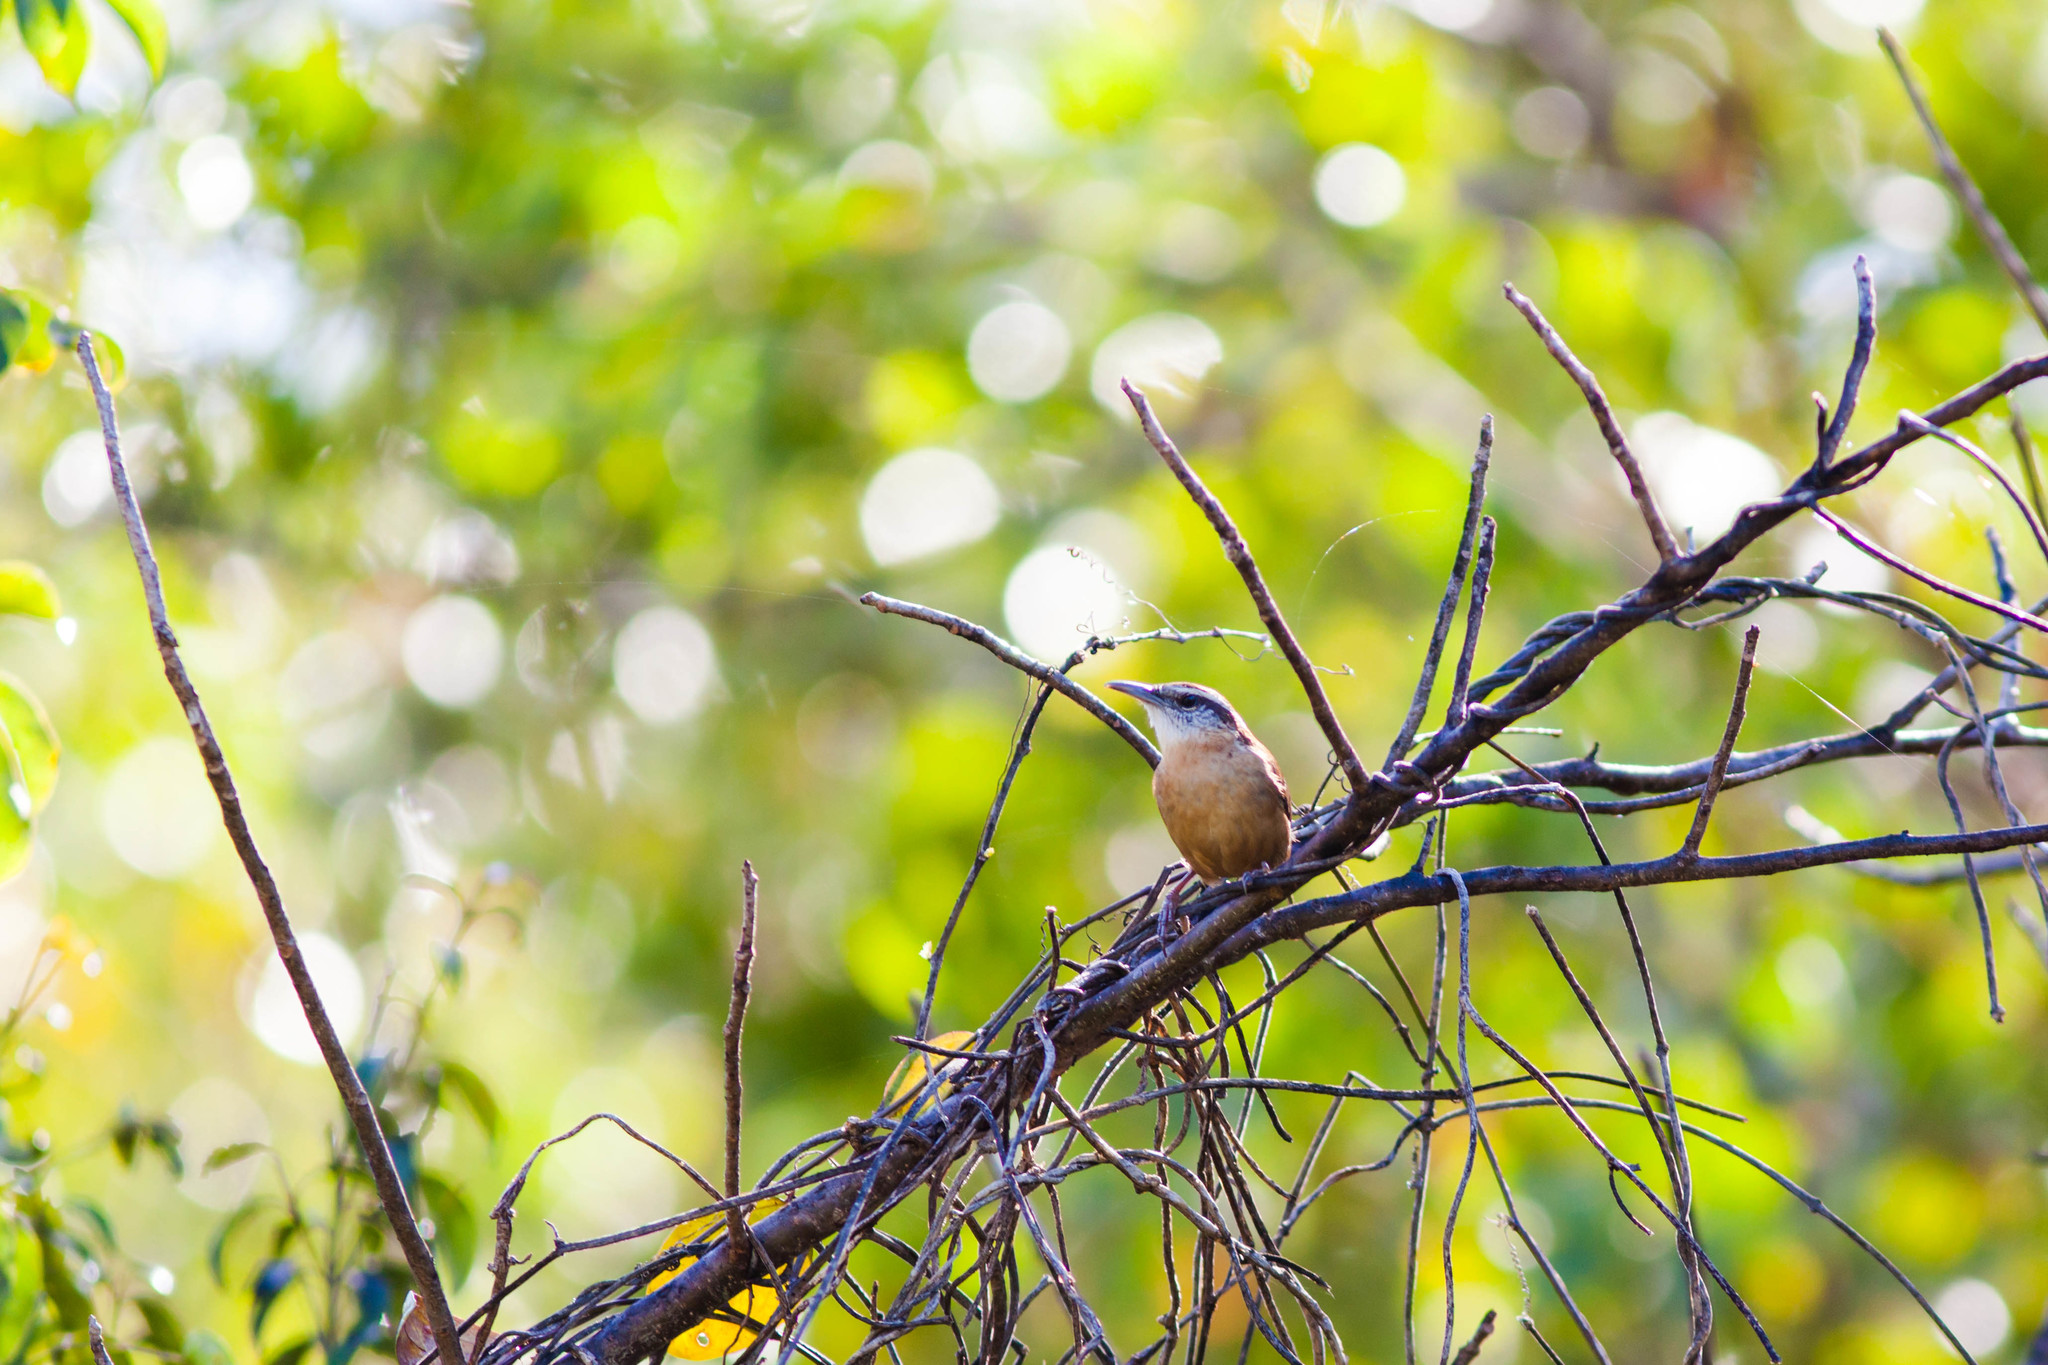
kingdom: Animalia
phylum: Chordata
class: Aves
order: Passeriformes
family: Troglodytidae
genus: Thryothorus
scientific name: Thryothorus ludovicianus
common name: Carolina wren
